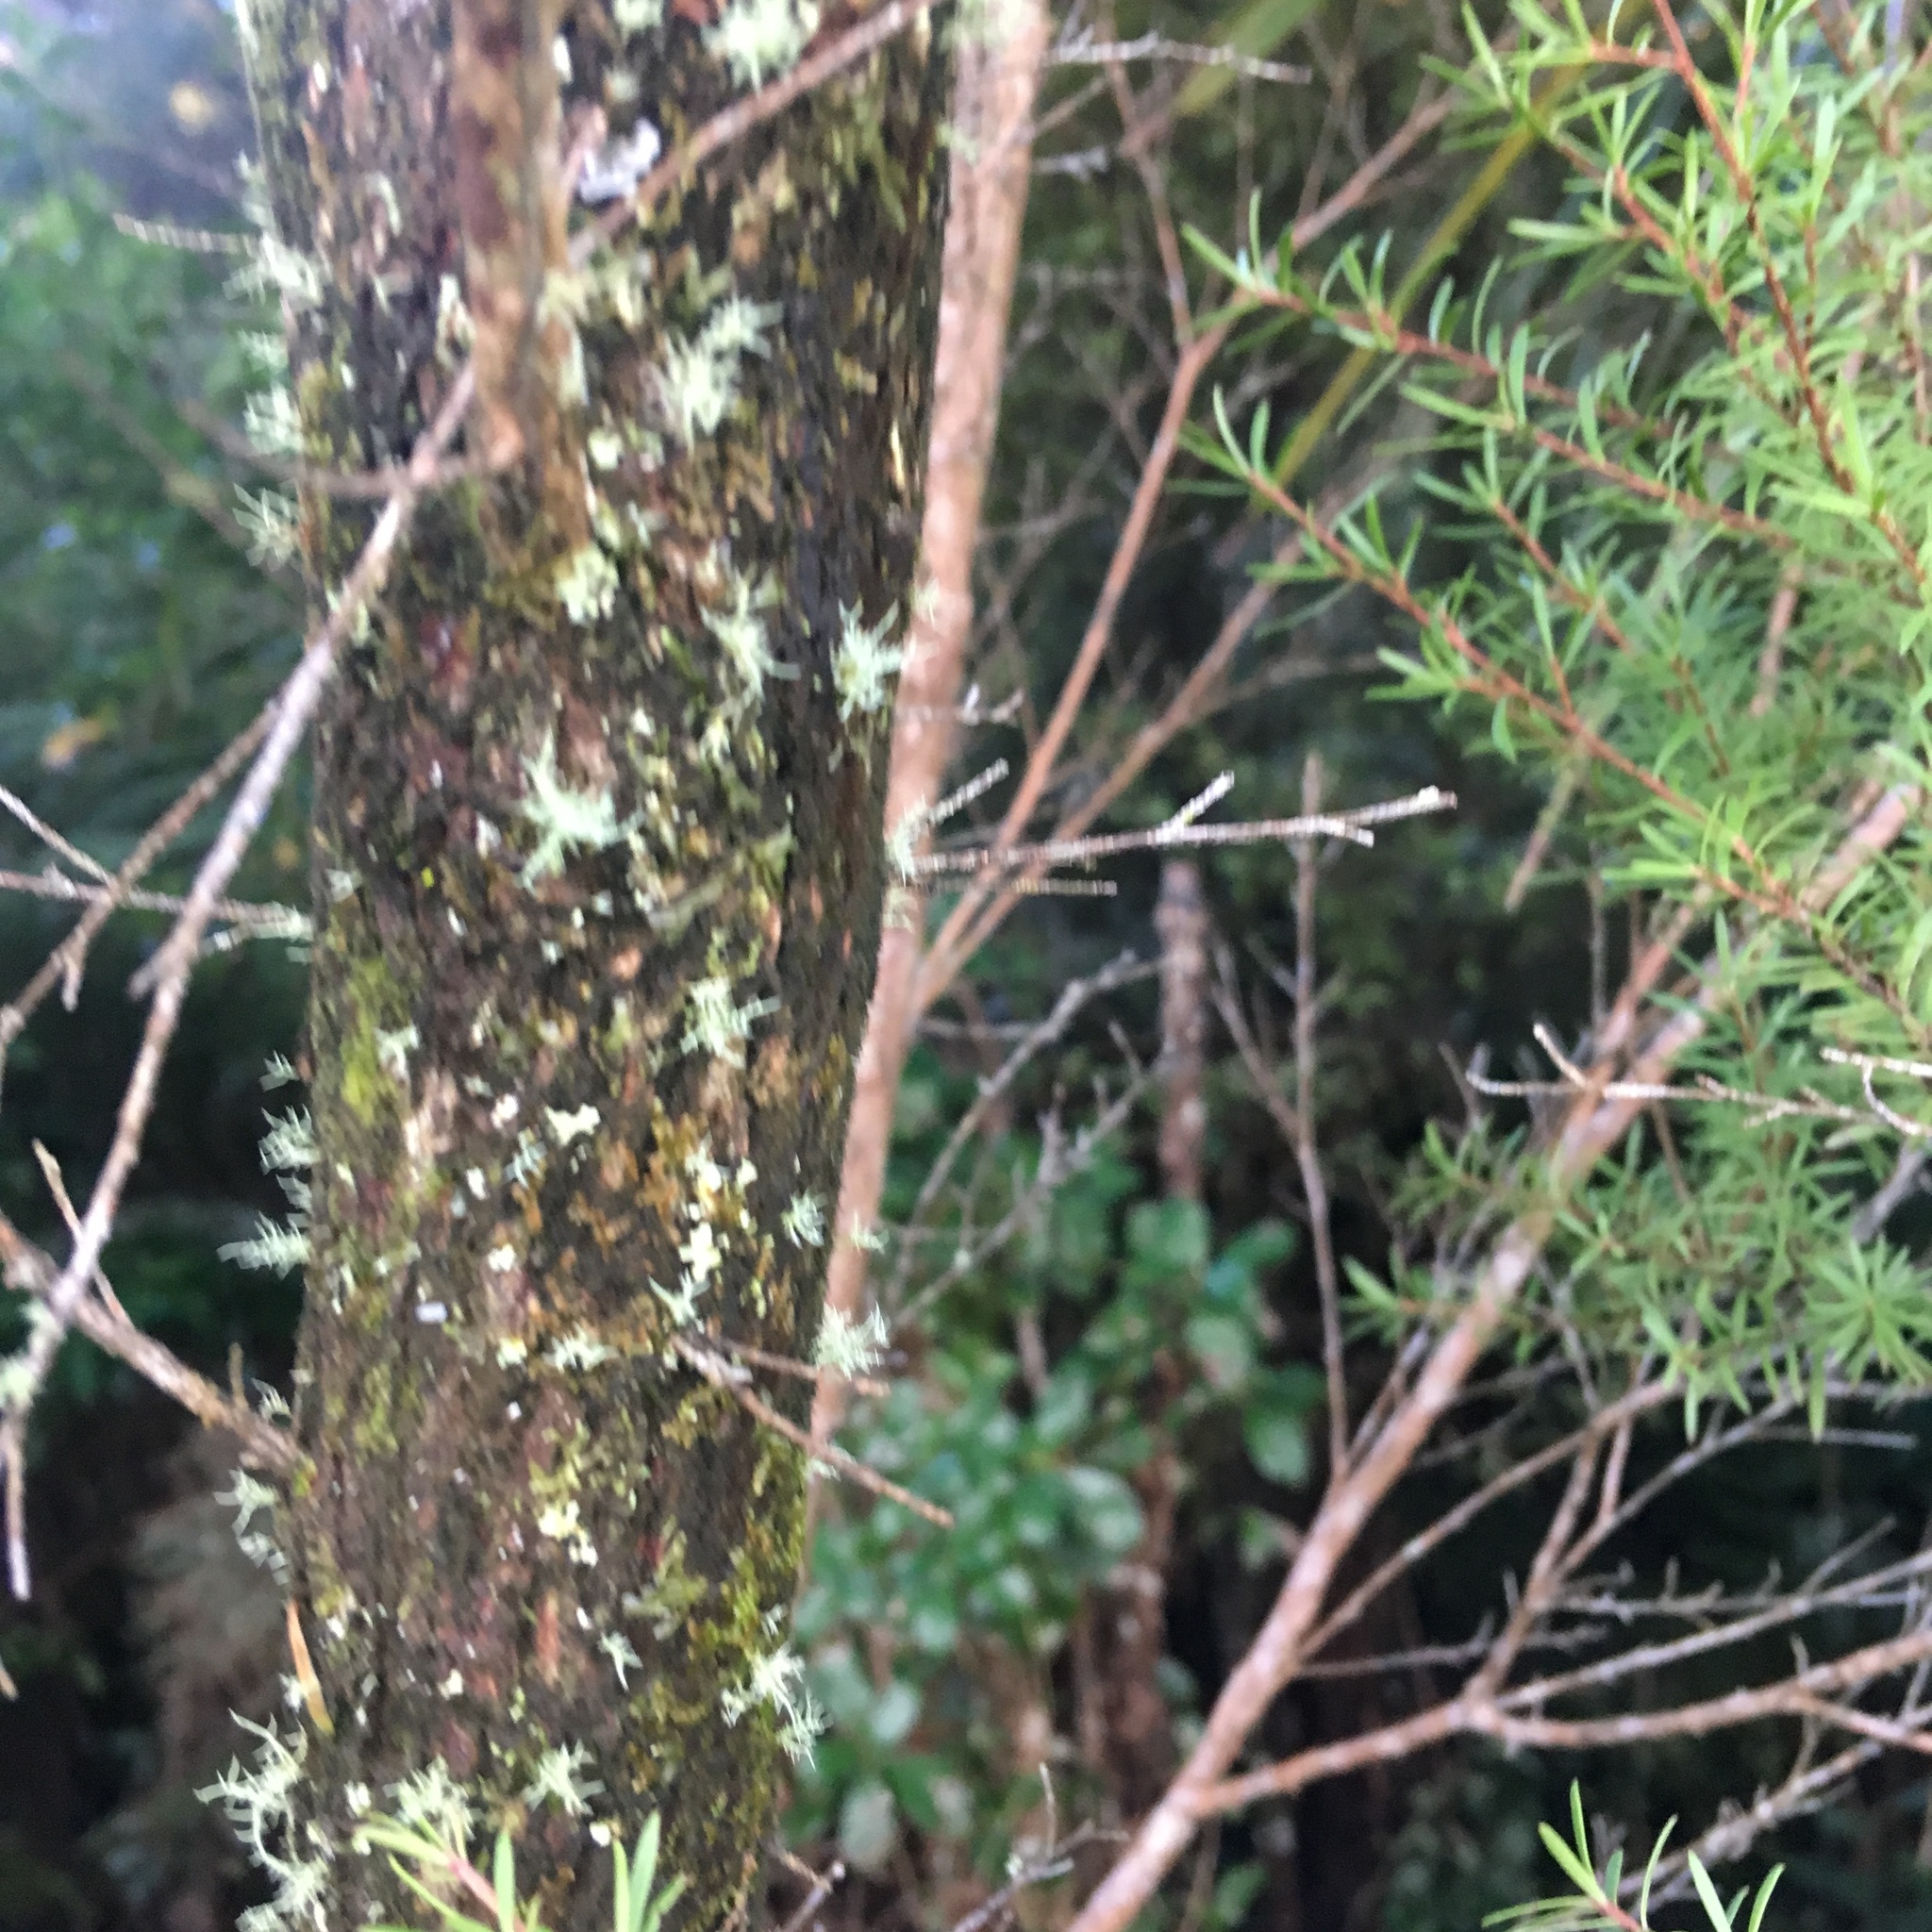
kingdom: Plantae
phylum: Tracheophyta
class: Magnoliopsida
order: Myrtales
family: Myrtaceae
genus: Leptospermum
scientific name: Leptospermum scoparium
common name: Broom tea-tree
